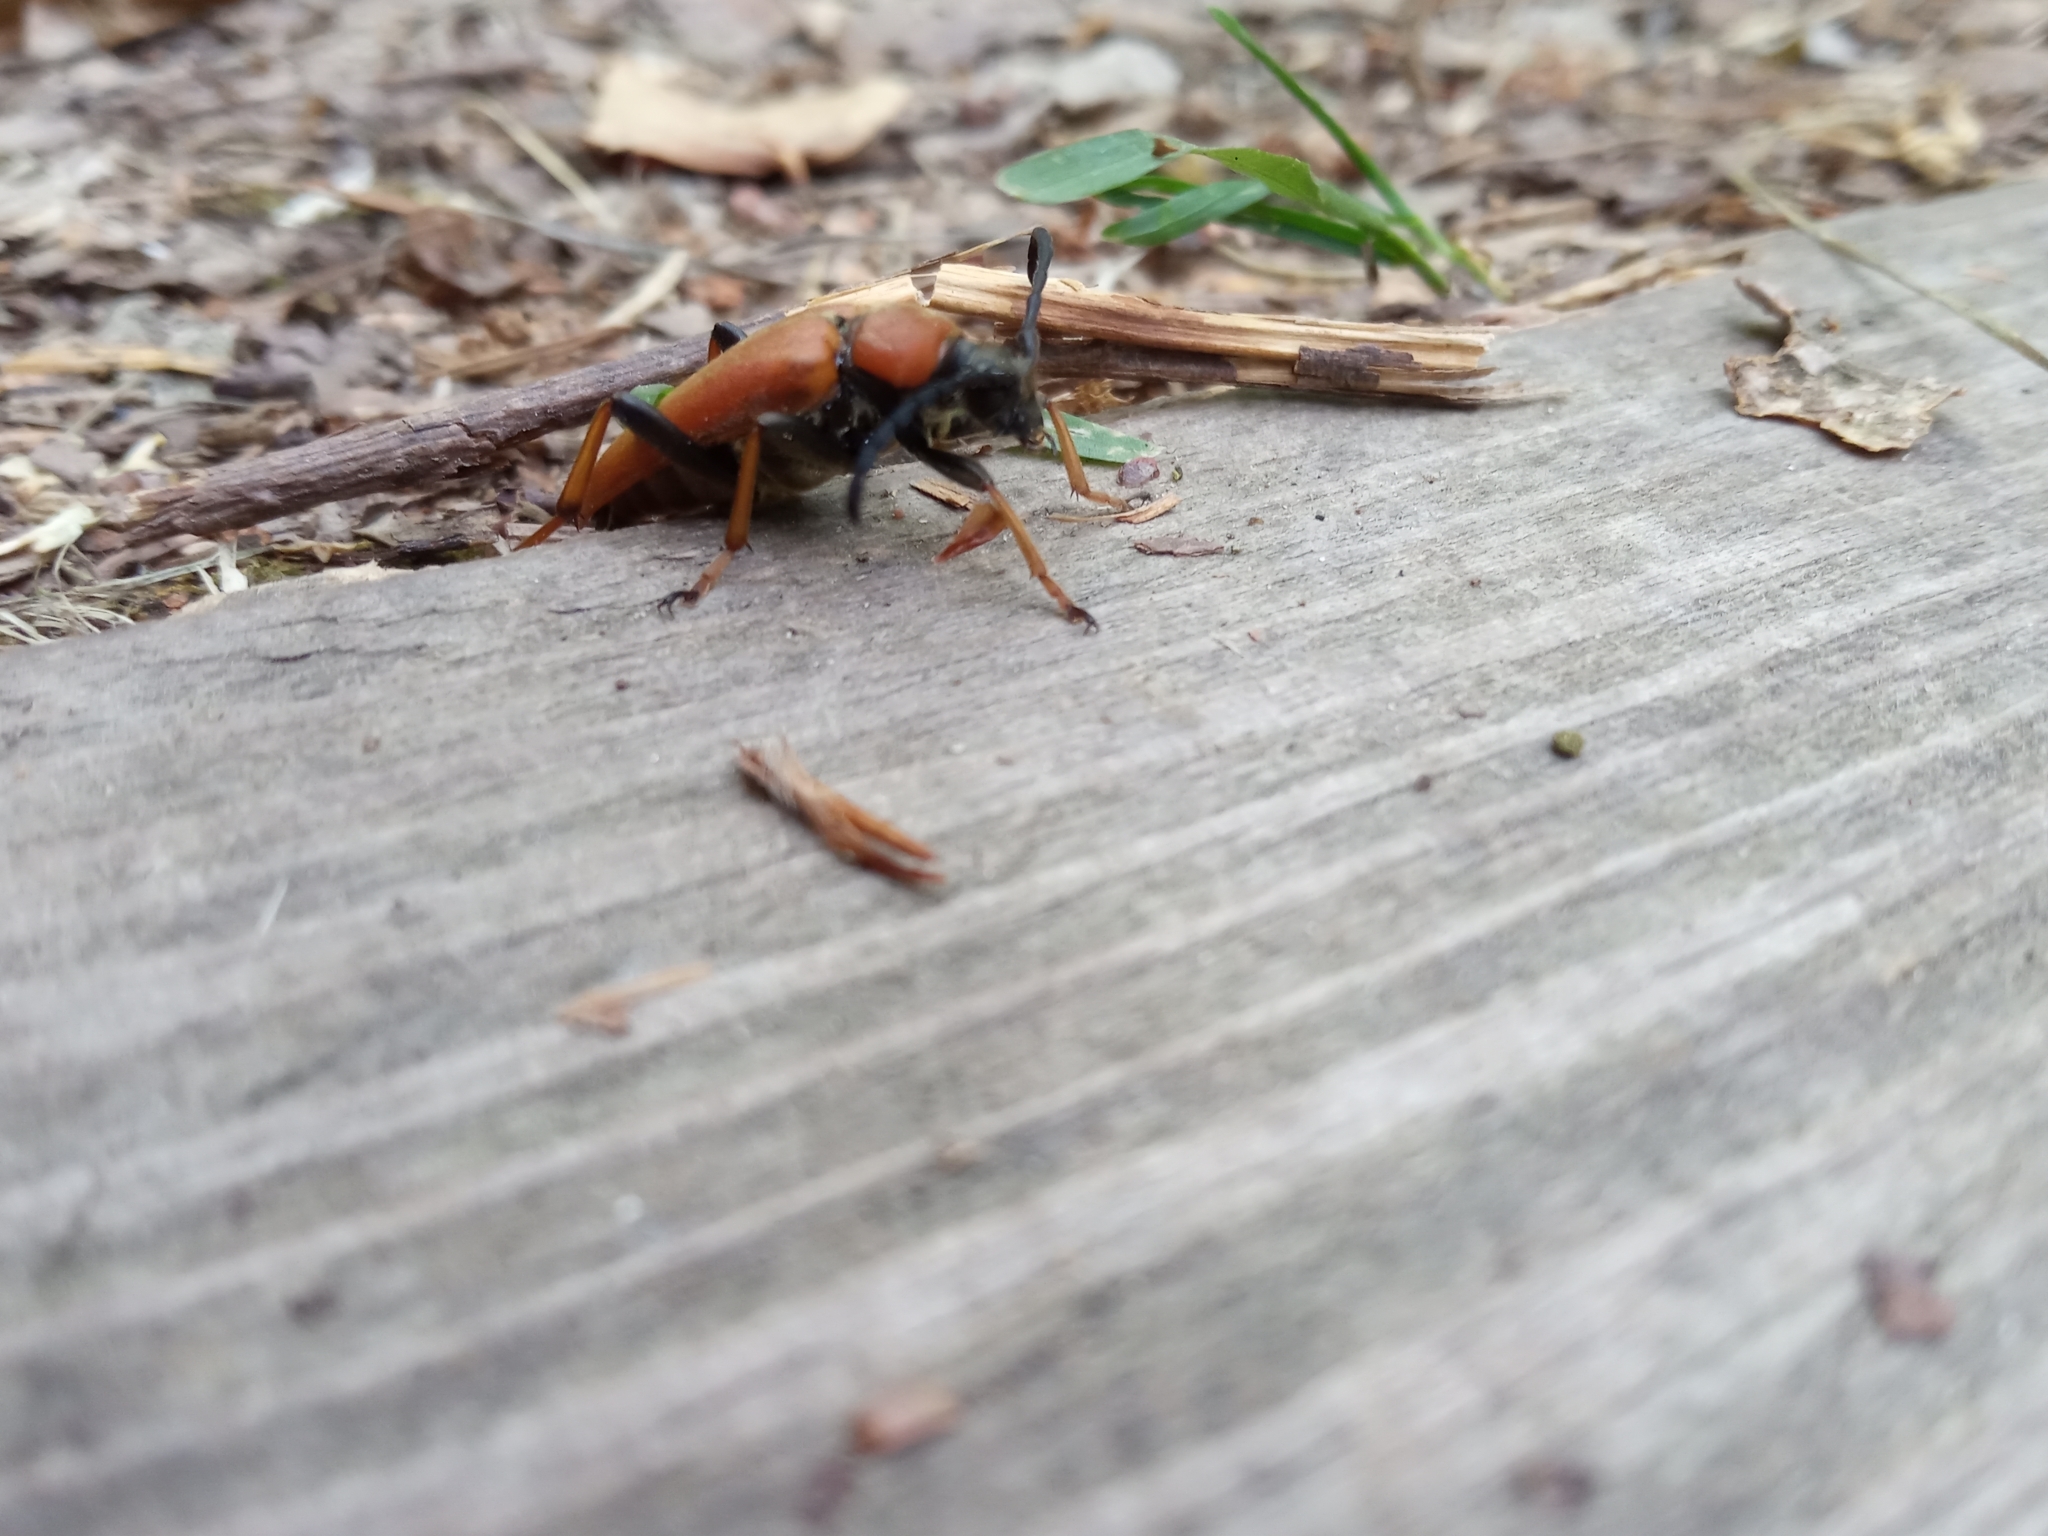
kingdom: Animalia
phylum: Arthropoda
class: Insecta
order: Coleoptera
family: Cerambycidae
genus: Stictoleptura
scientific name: Stictoleptura rubra
